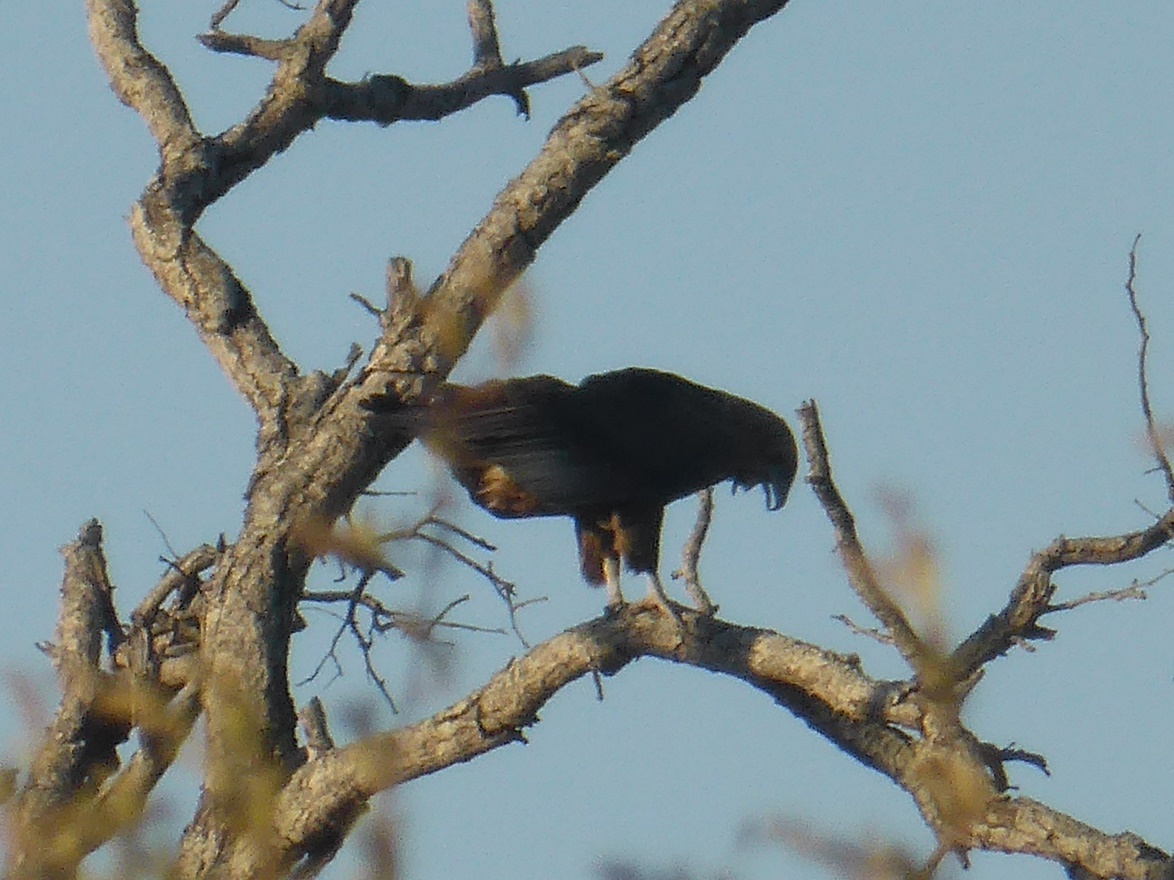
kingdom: Animalia
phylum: Chordata
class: Aves
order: Accipitriformes
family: Accipitridae
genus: Terathopius
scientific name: Terathopius ecaudatus
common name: Bateleur
